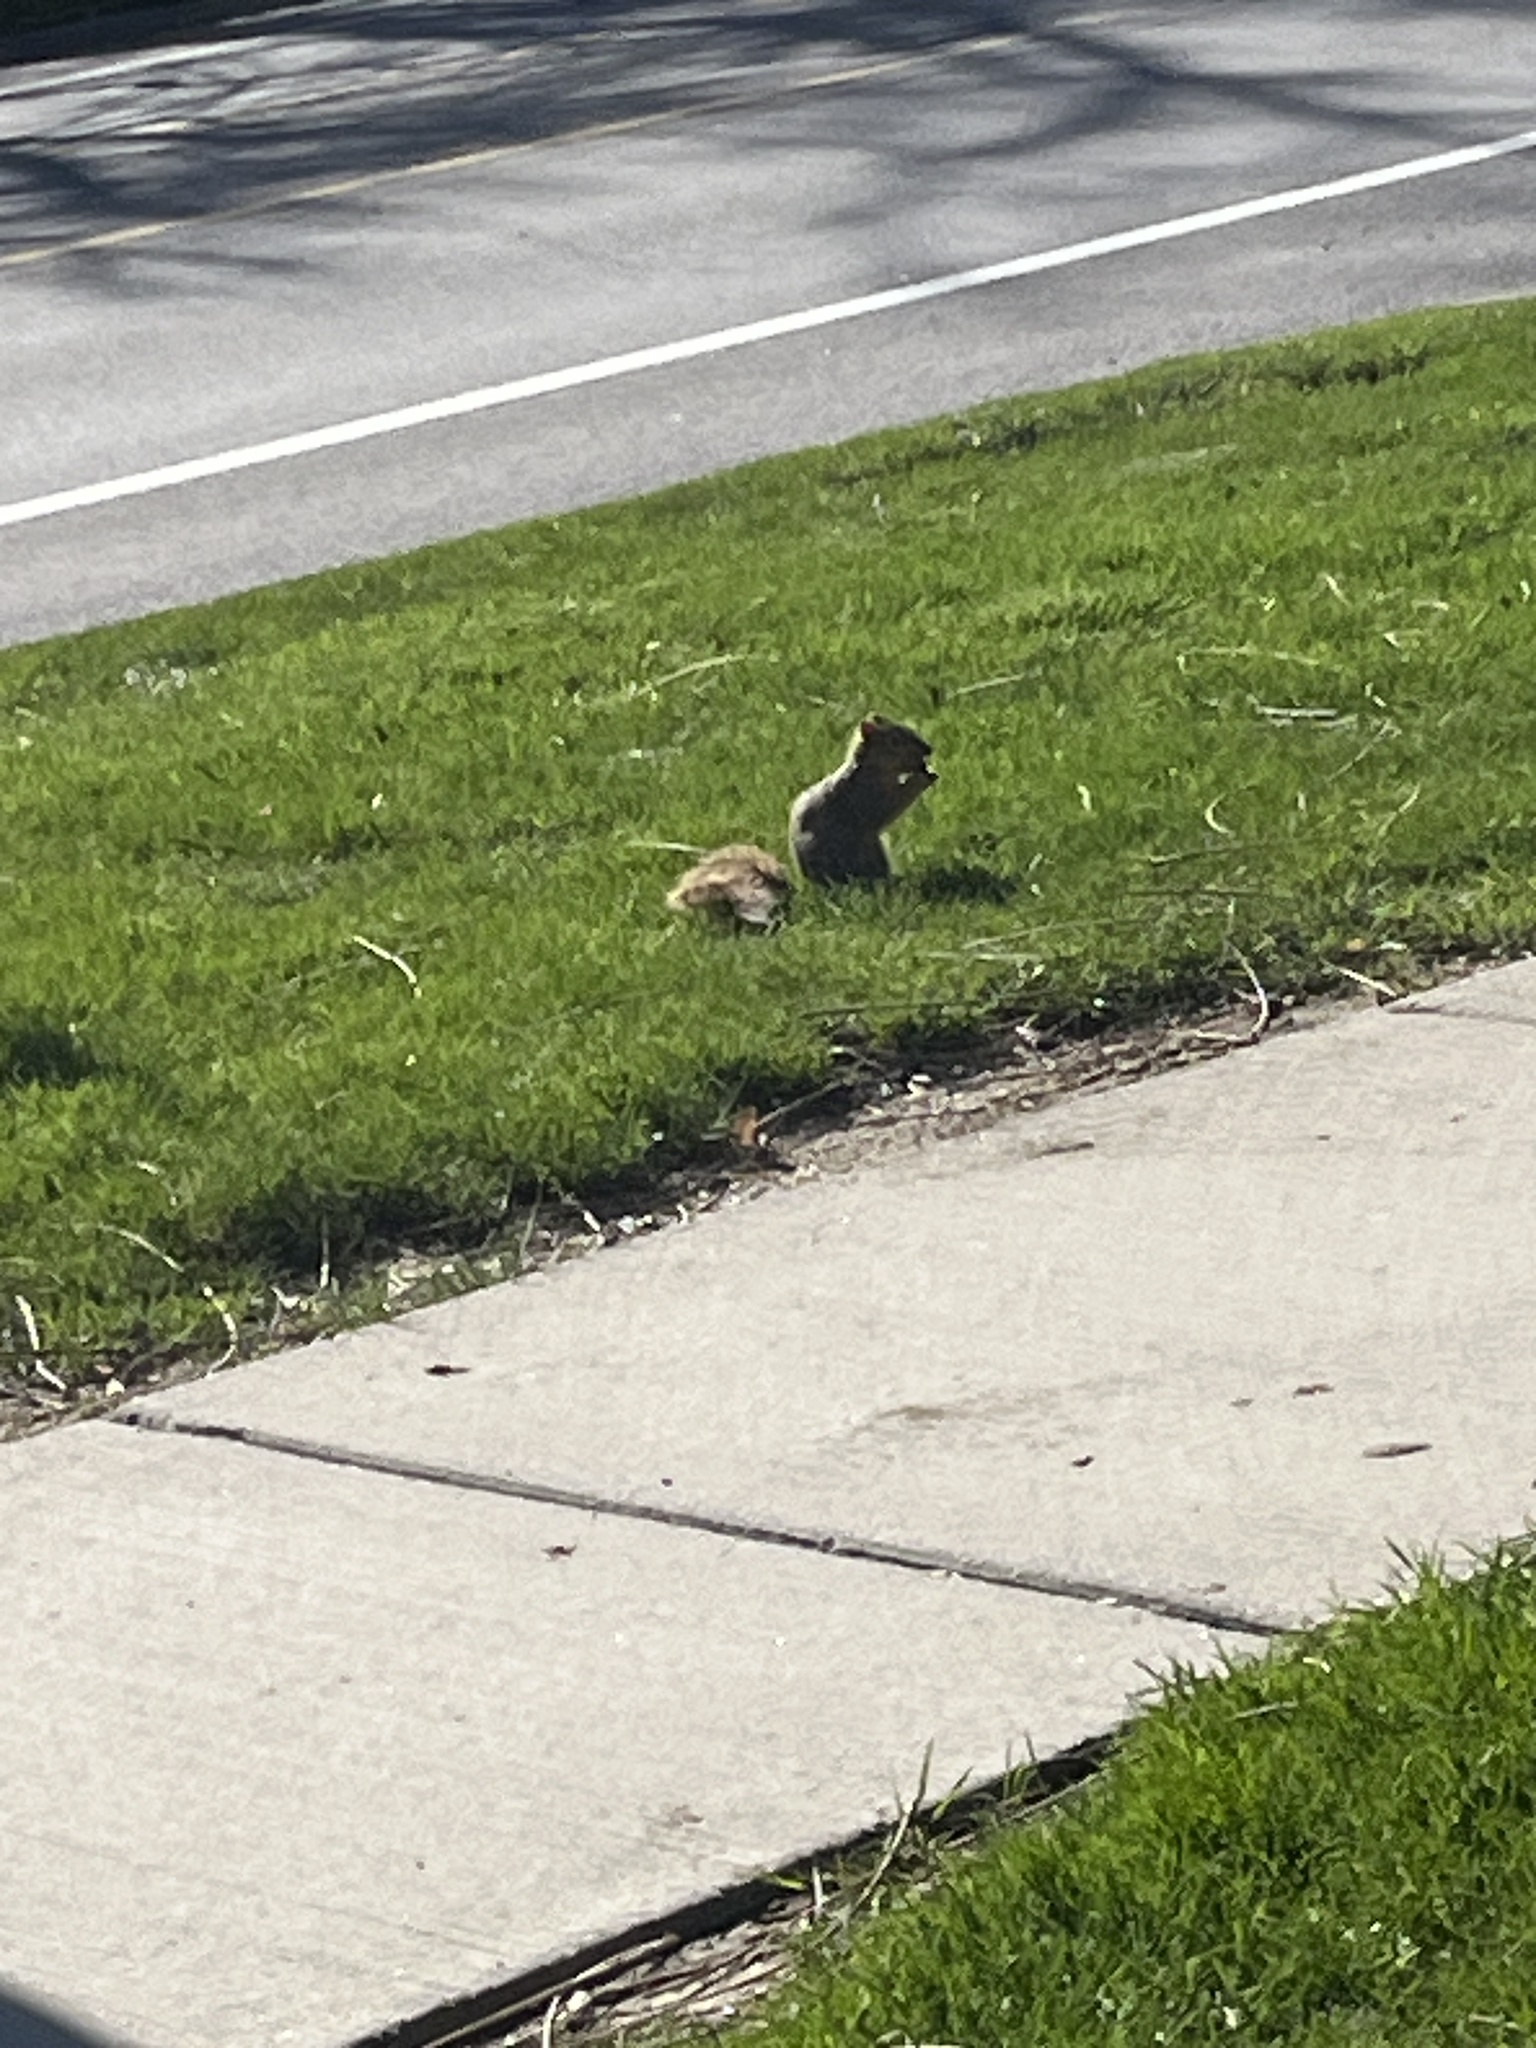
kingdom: Animalia
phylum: Chordata
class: Mammalia
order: Rodentia
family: Sciuridae
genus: Sciurus
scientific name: Sciurus niger
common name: Fox squirrel
